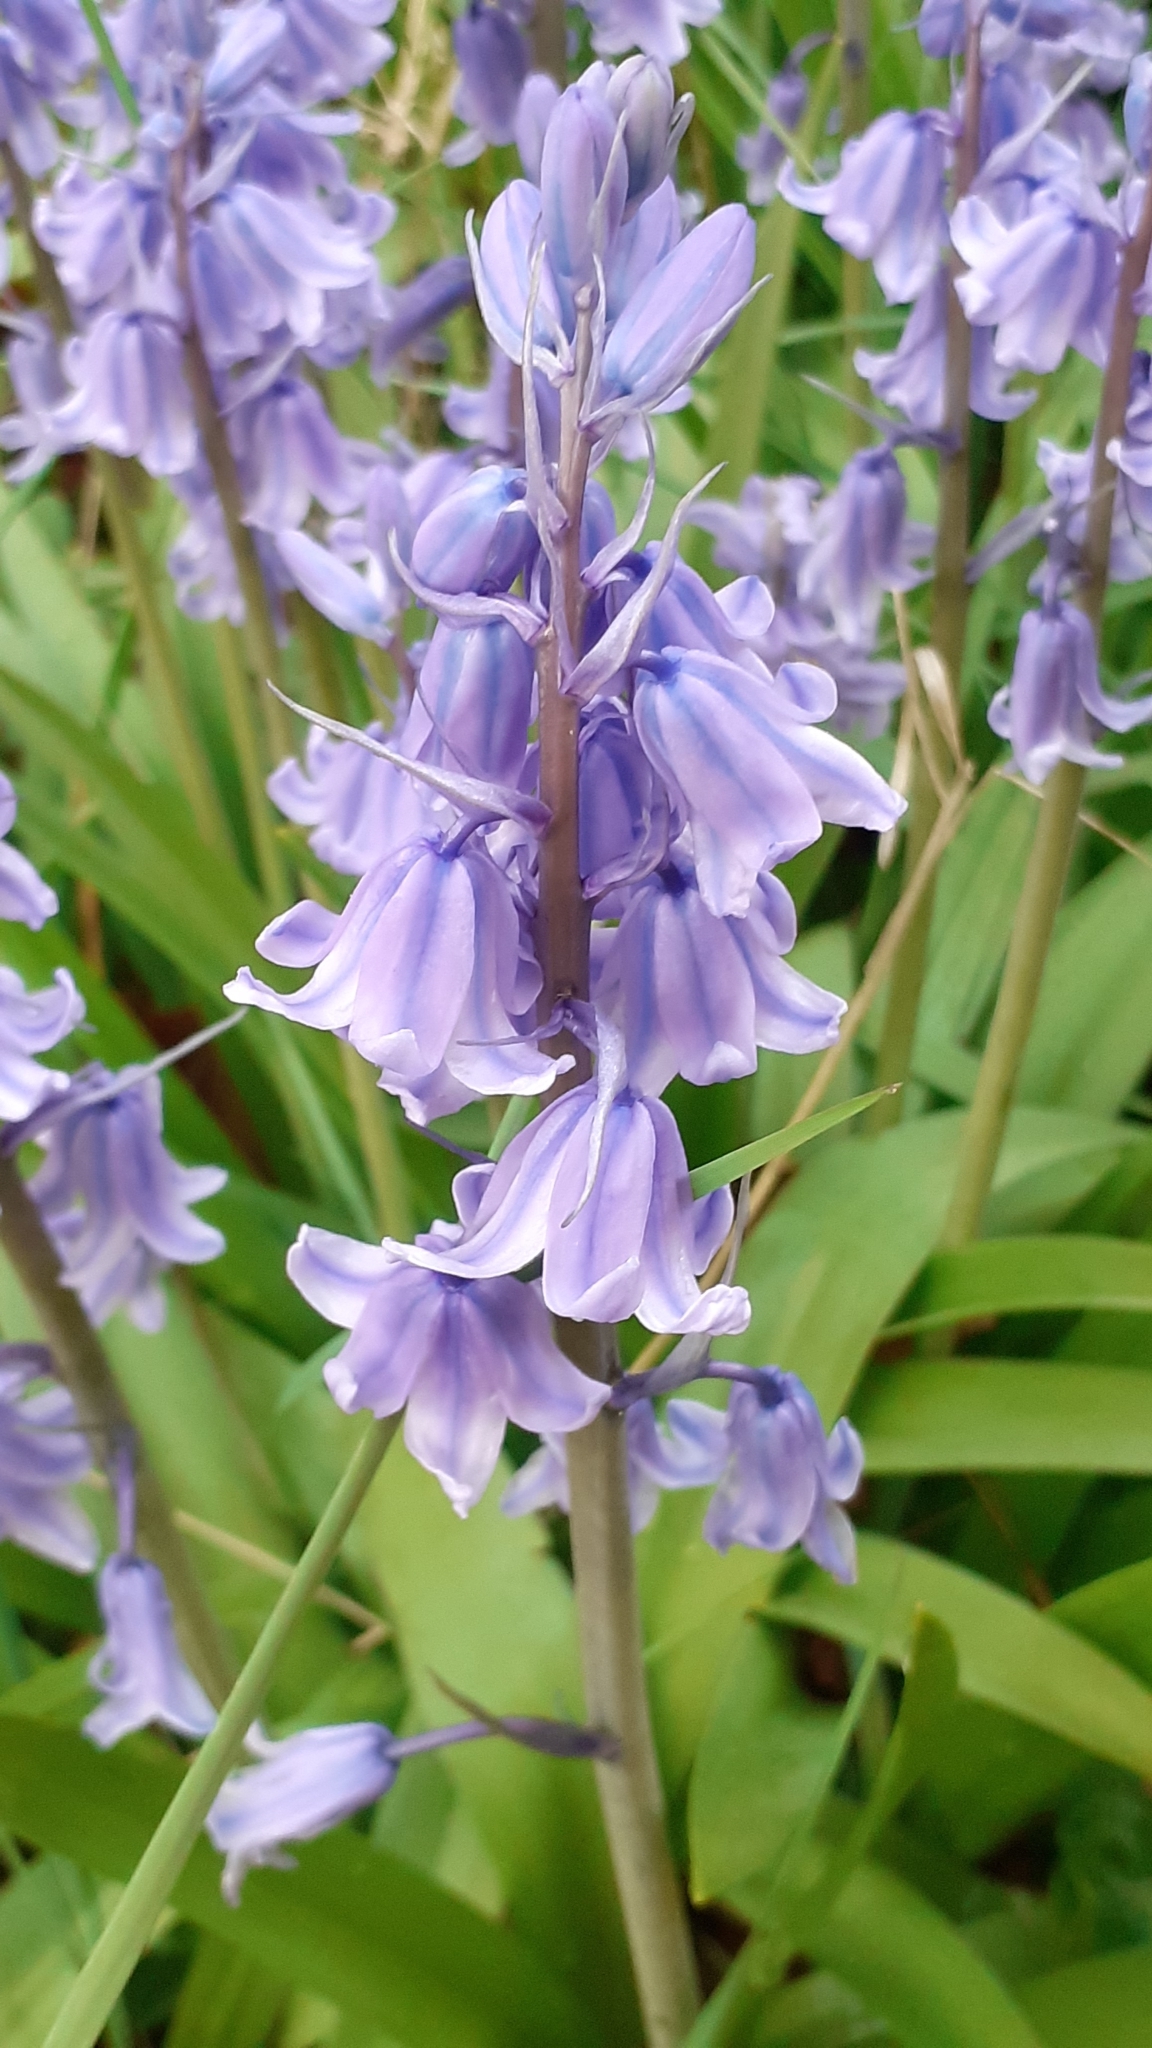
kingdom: Plantae
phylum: Tracheophyta
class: Liliopsida
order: Asparagales
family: Asparagaceae
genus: Hyacinthoides
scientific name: Hyacinthoides massartiana
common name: Hyacinthoides
